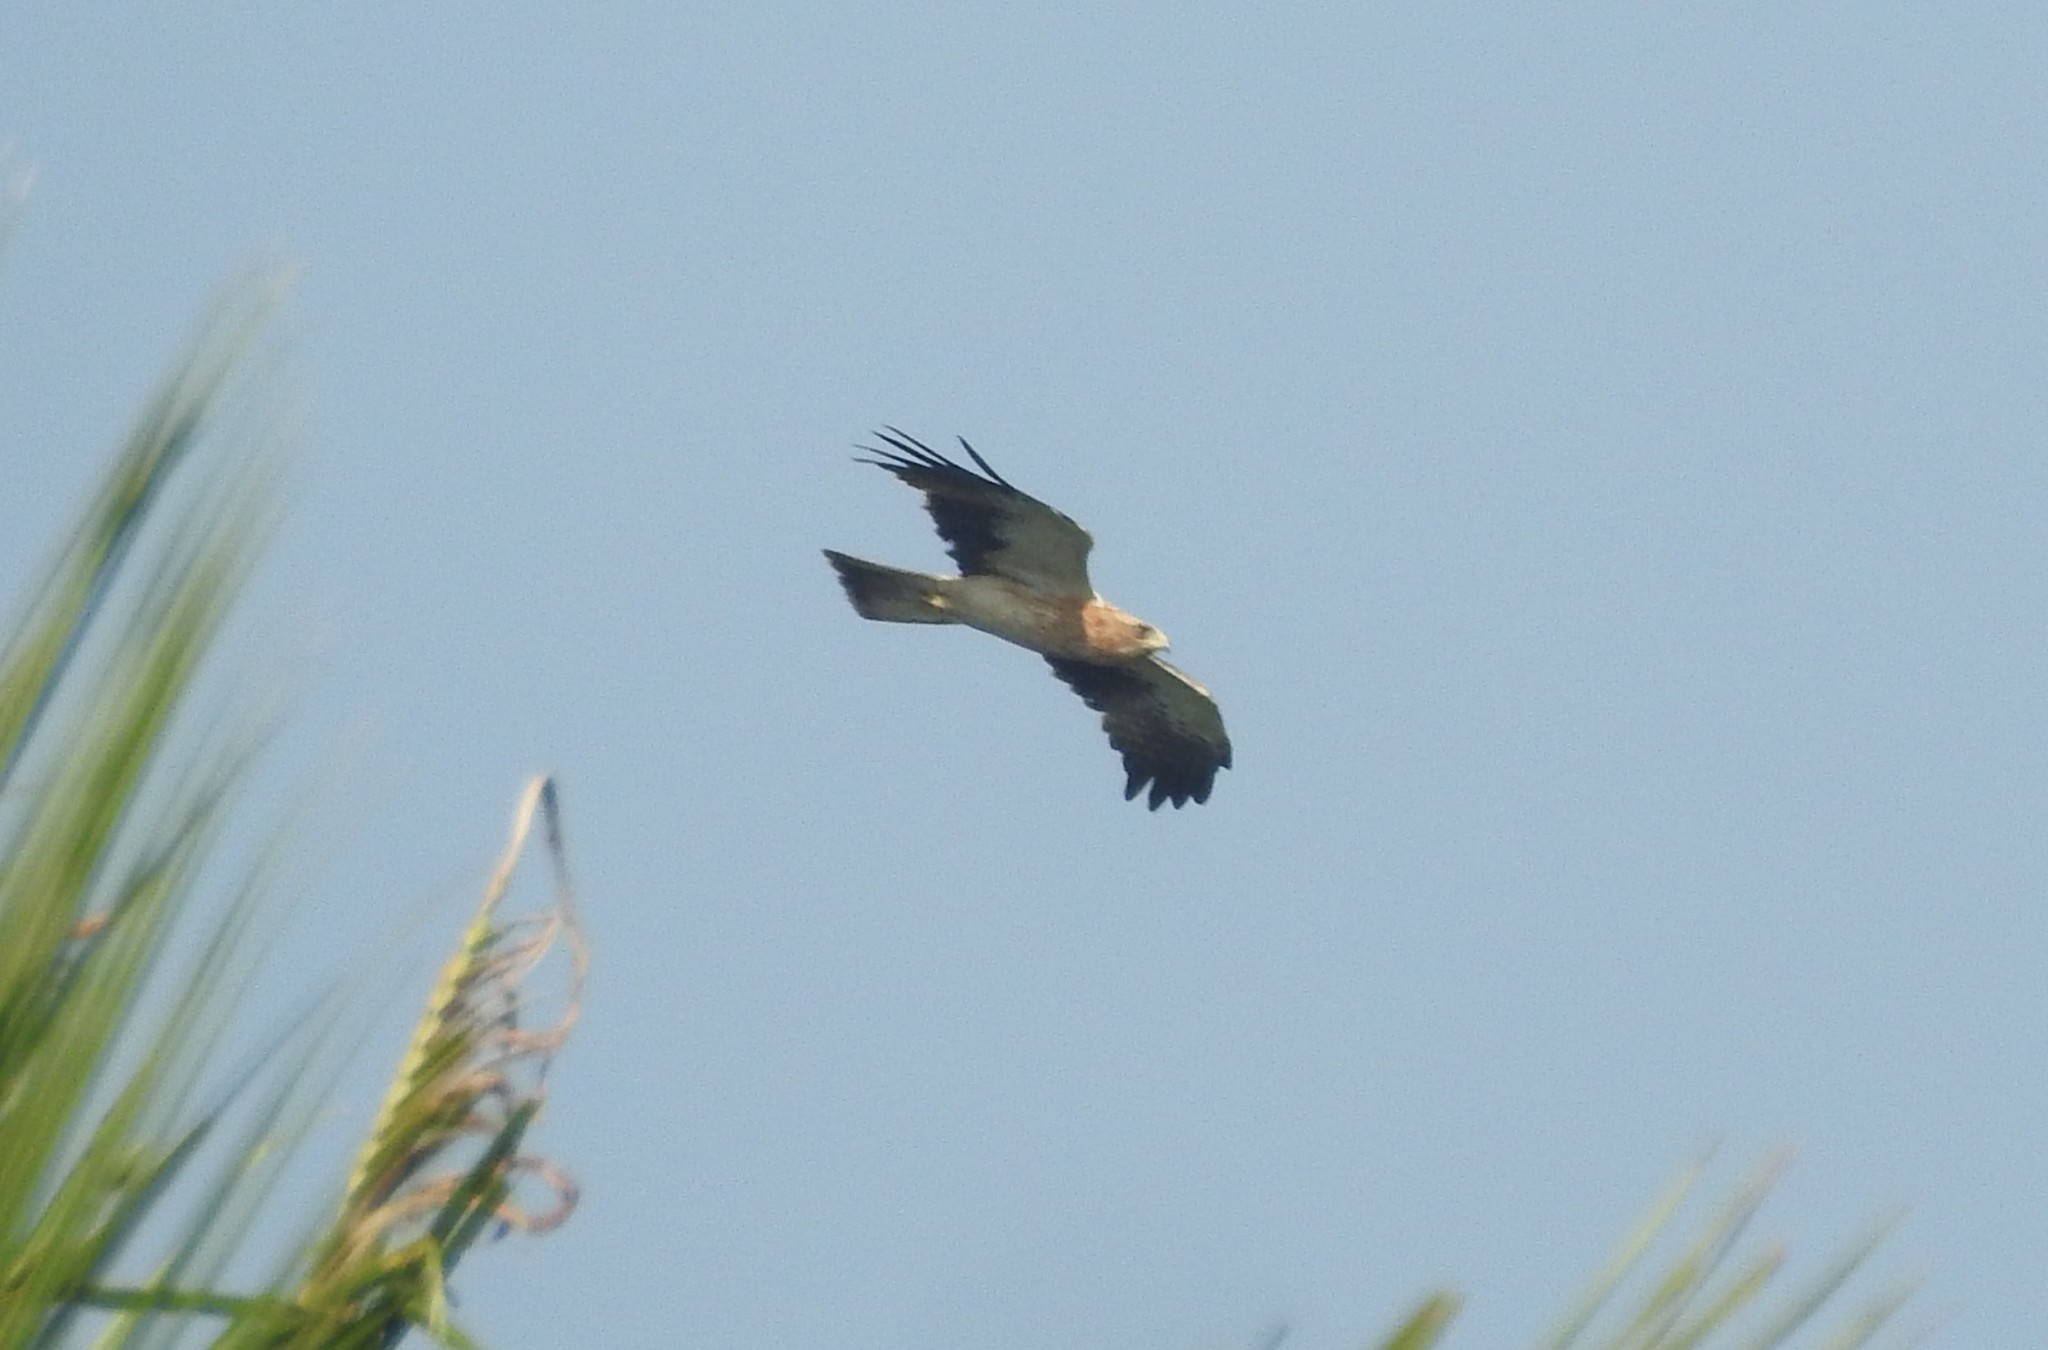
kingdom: Animalia
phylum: Chordata
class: Aves
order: Accipitriformes
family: Accipitridae
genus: Hieraaetus
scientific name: Hieraaetus pennatus
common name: Booted eagle
